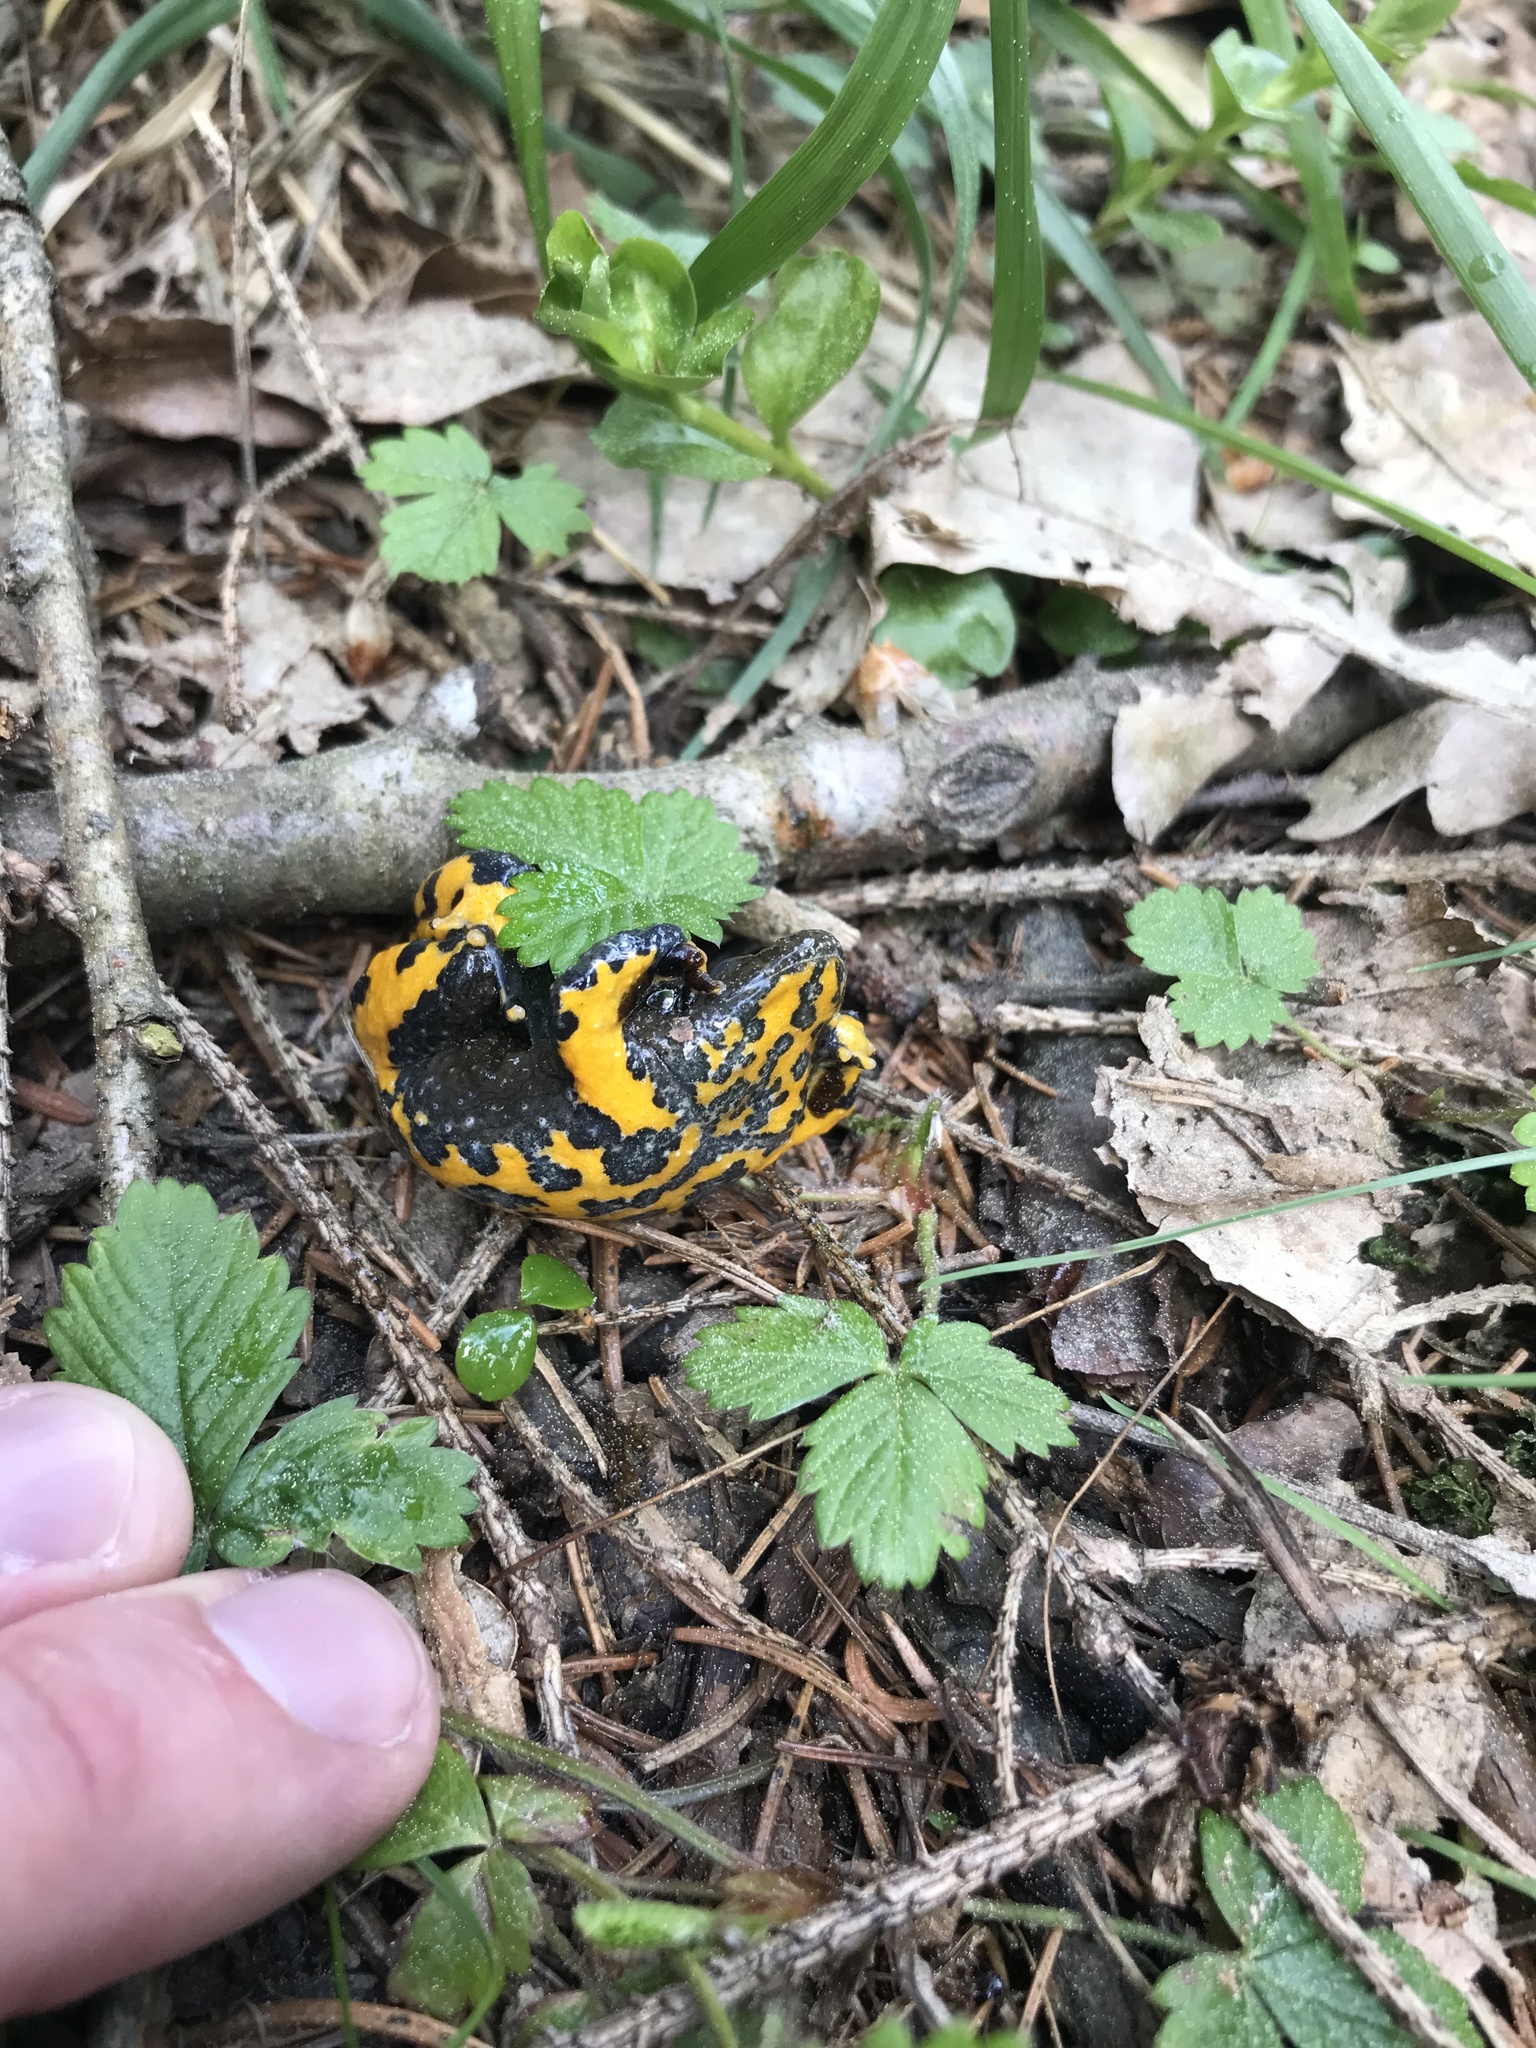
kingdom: Animalia
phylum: Chordata
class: Amphibia
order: Anura
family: Bombinatoridae
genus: Bombina
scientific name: Bombina variegata
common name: Yellow-bellied toad
